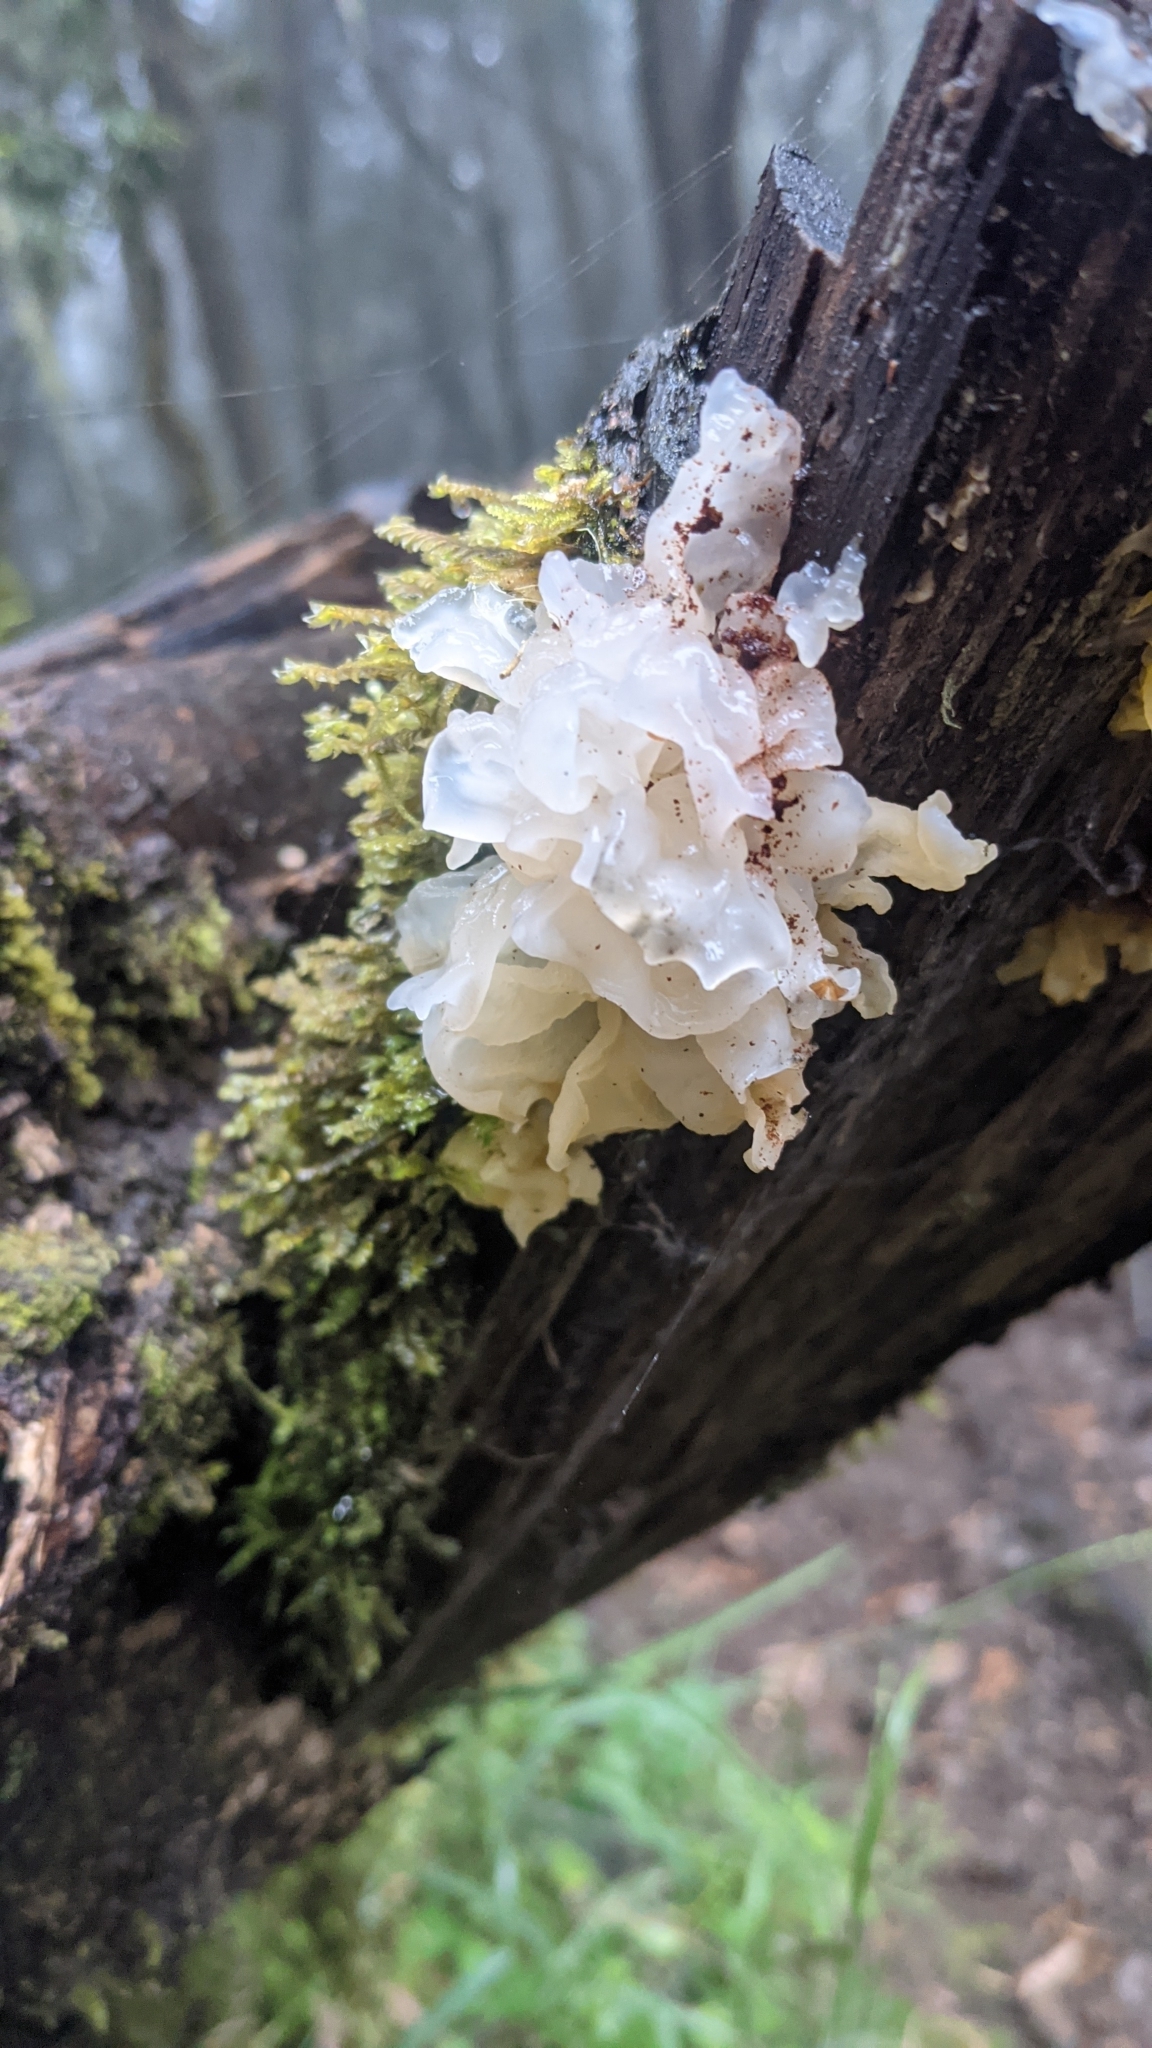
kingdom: Fungi
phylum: Basidiomycota
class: Tremellomycetes
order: Tremellales
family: Tremellaceae
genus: Tremella
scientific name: Tremella fuciformis
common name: Snow fungus
